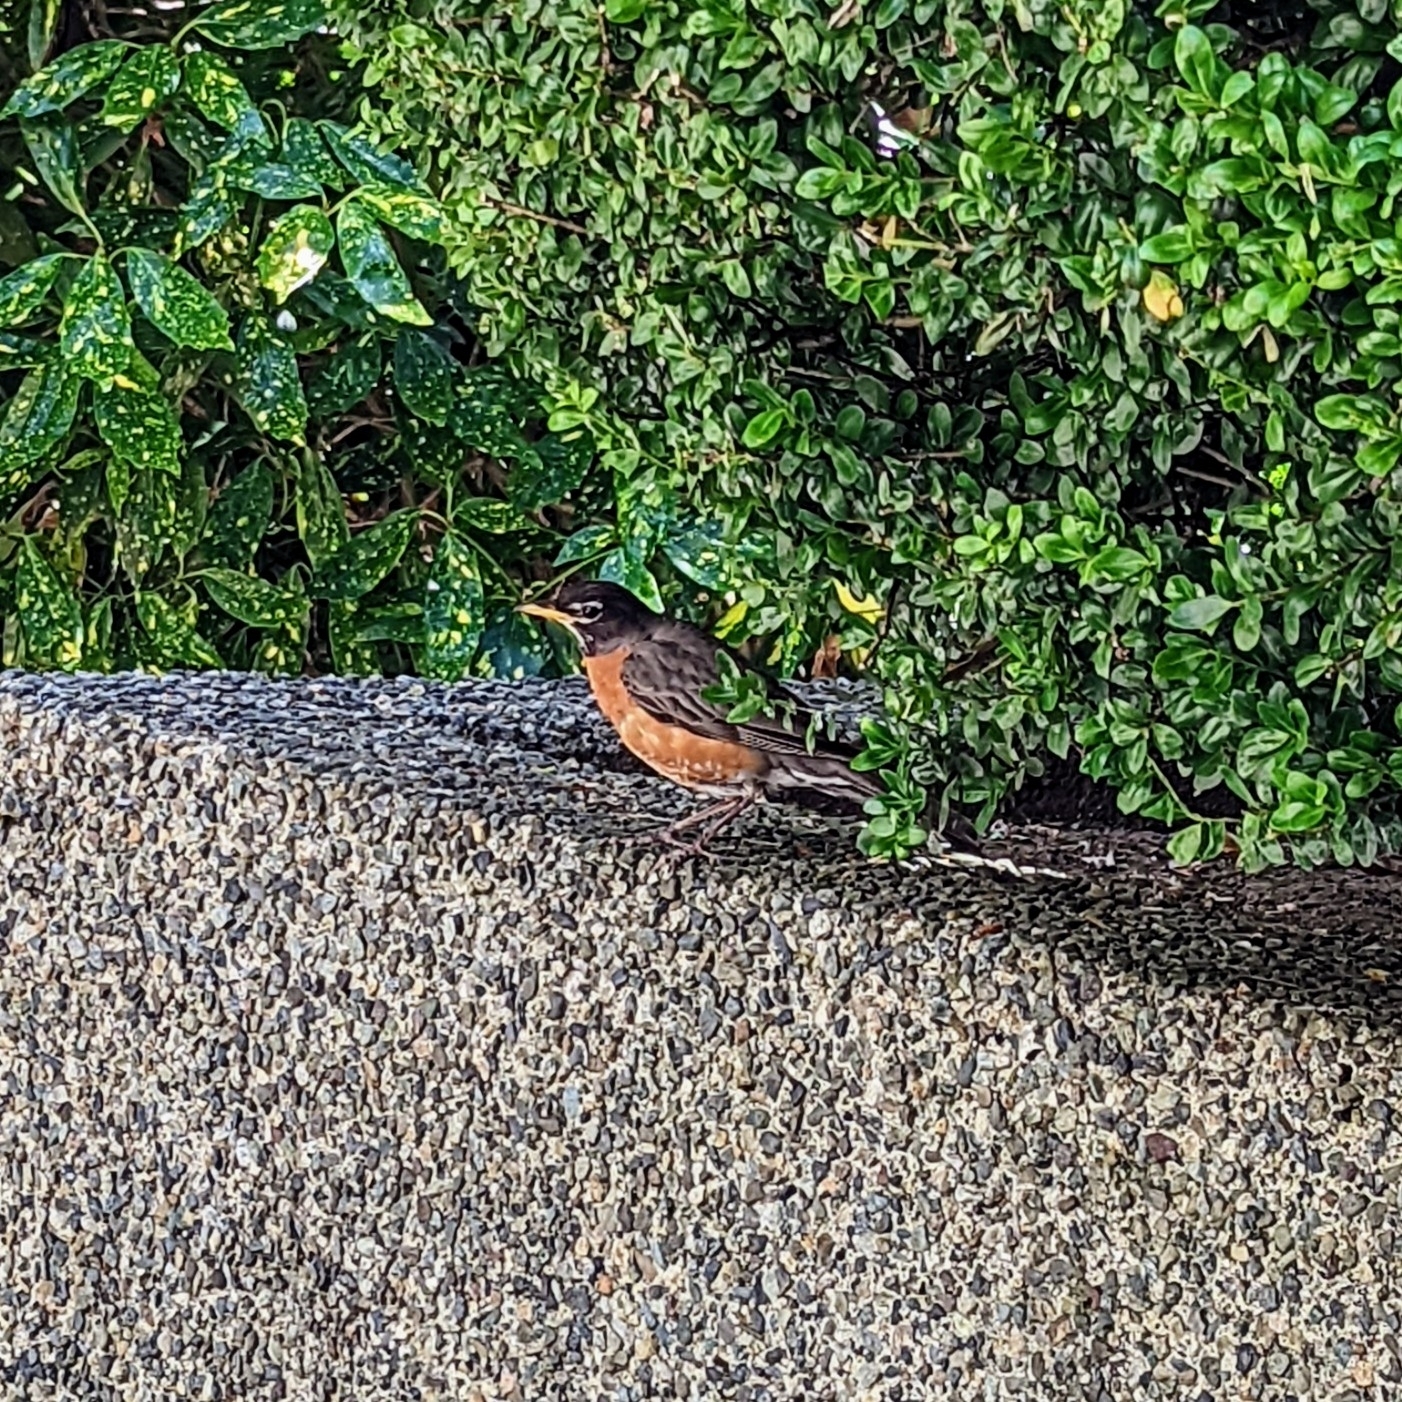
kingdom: Animalia
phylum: Chordata
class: Aves
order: Passeriformes
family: Turdidae
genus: Turdus
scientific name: Turdus migratorius
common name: American robin
